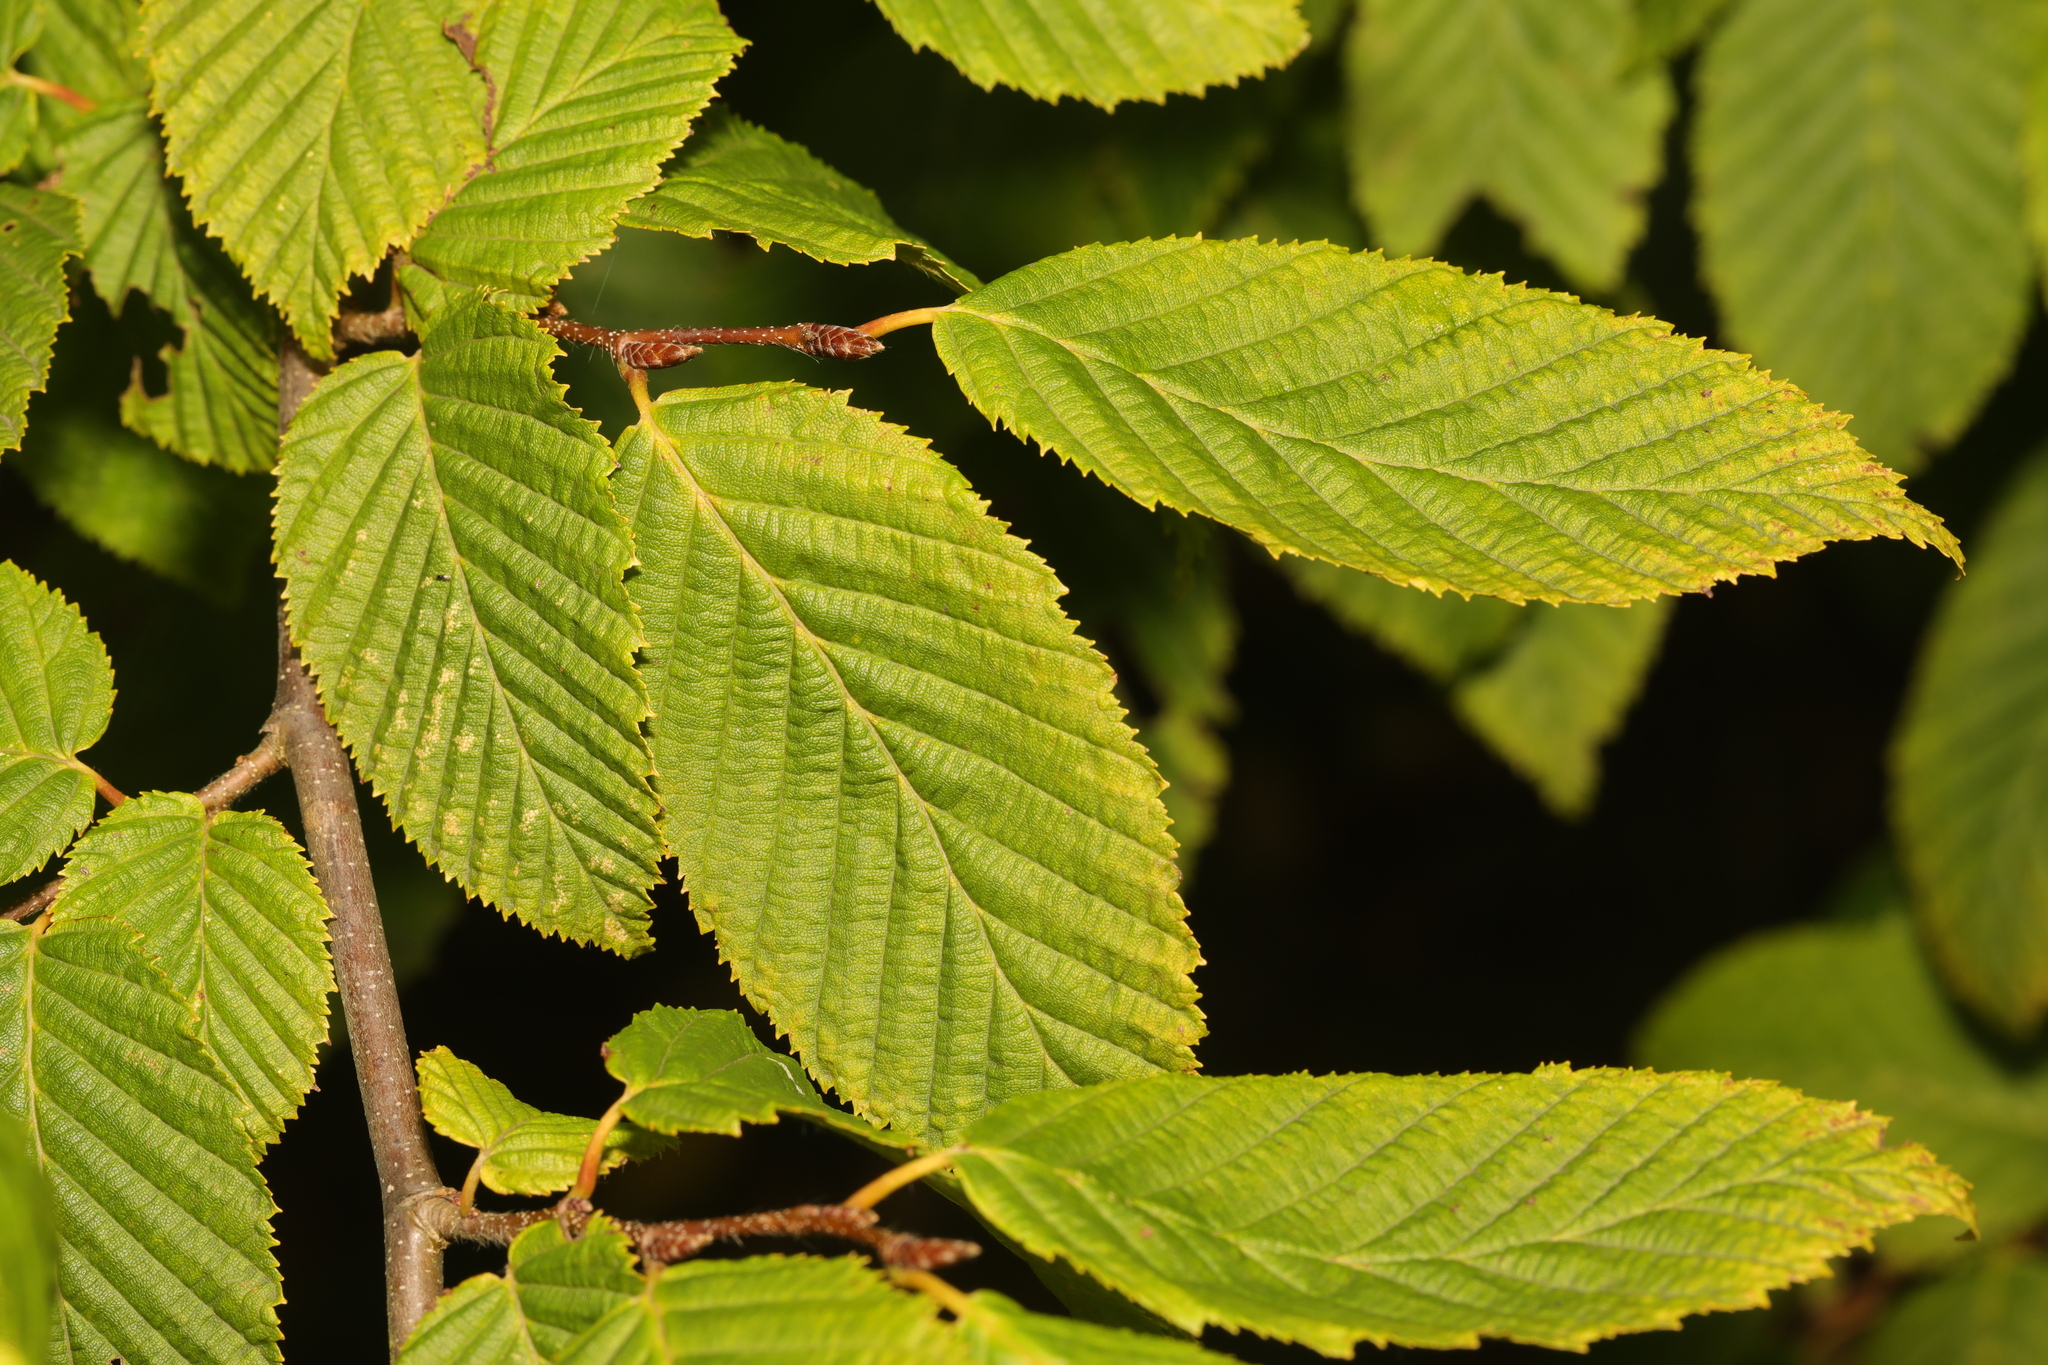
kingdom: Plantae
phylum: Tracheophyta
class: Magnoliopsida
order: Fagales
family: Betulaceae
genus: Carpinus
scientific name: Carpinus betulus
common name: Hornbeam
